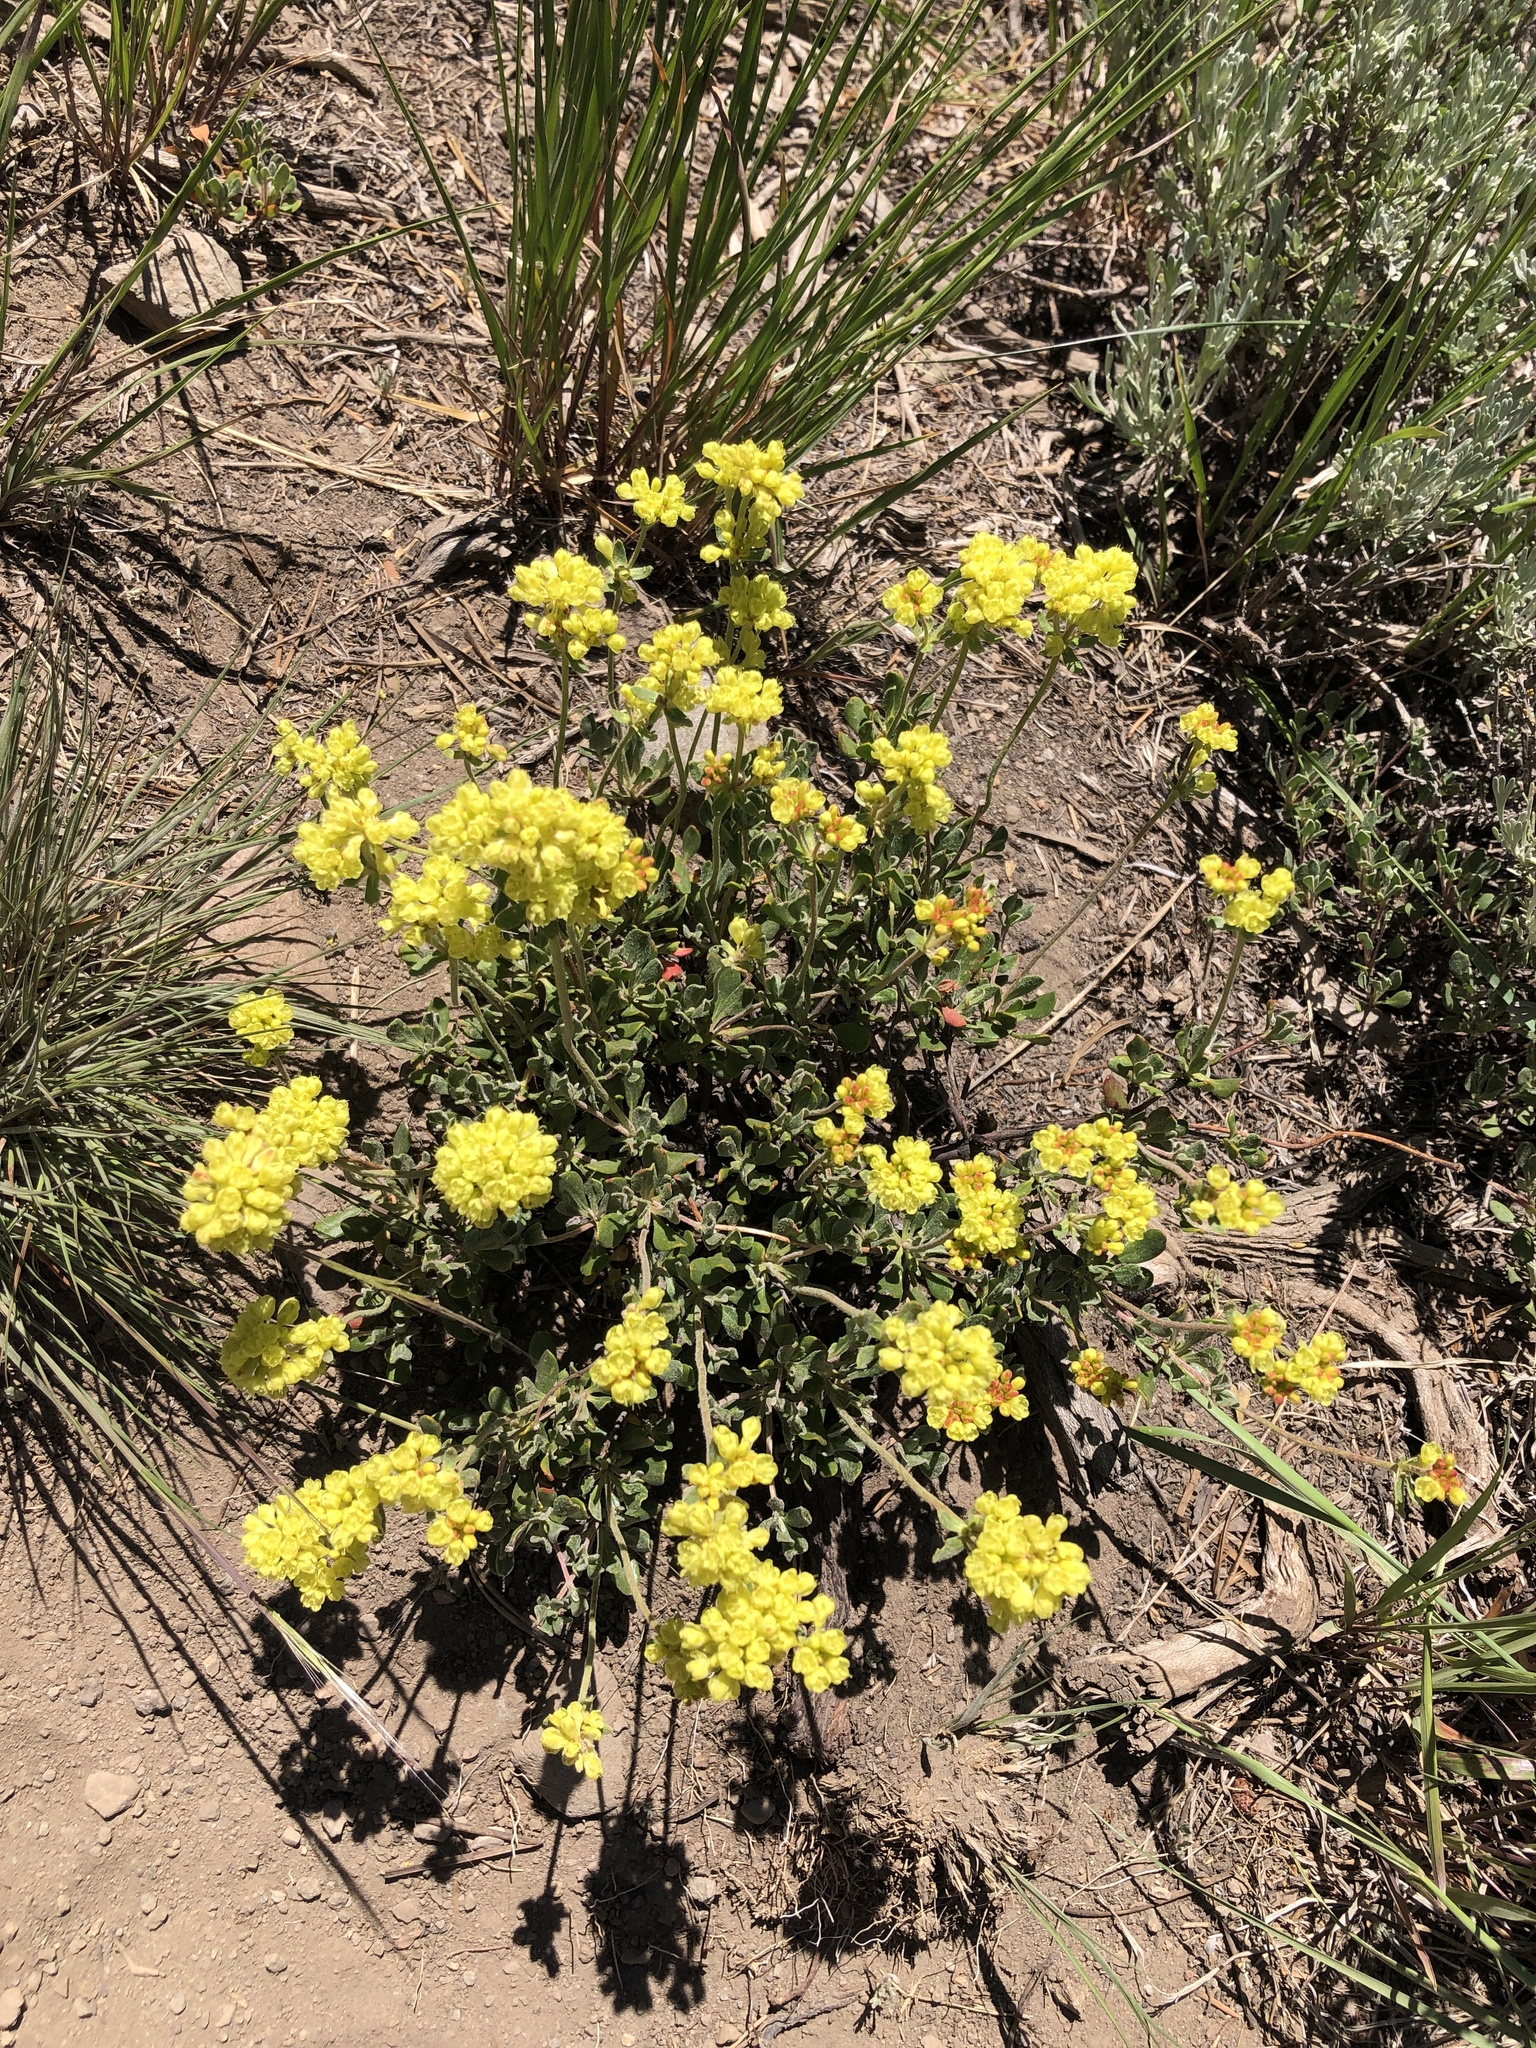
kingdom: Plantae
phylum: Tracheophyta
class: Magnoliopsida
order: Caryophyllales
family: Polygonaceae
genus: Eriogonum
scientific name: Eriogonum umbellatum
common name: Sulfur-buckwheat
